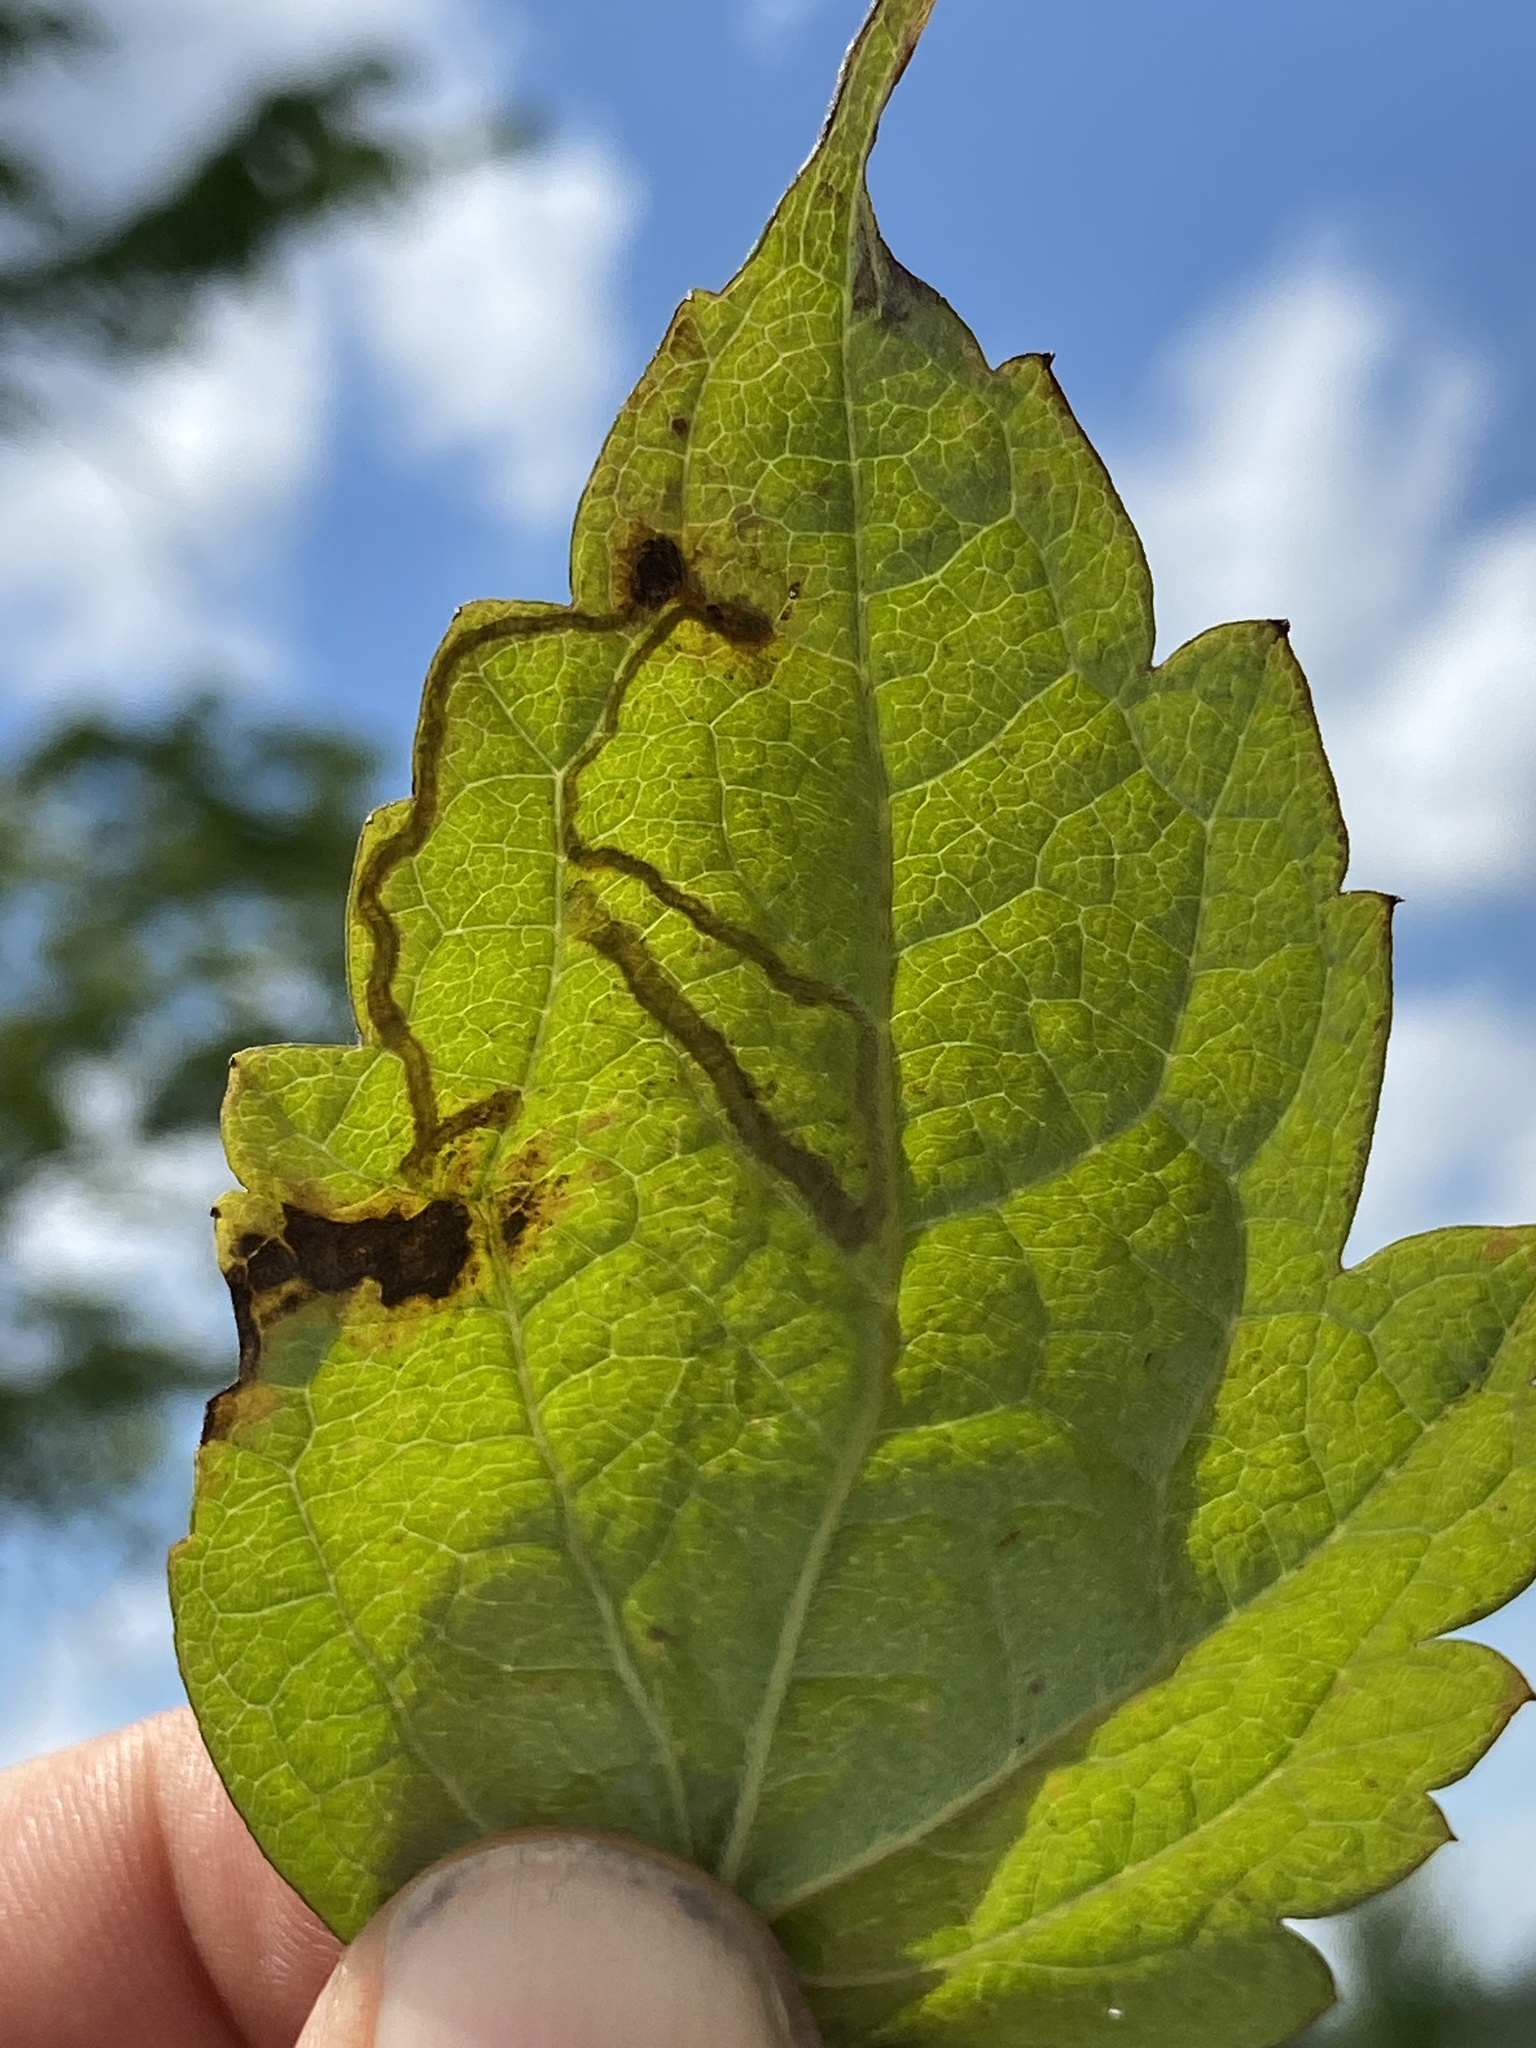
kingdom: Animalia
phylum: Arthropoda
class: Insecta
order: Diptera
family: Agromyzidae
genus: Phytomyza
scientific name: Phytomyza loewii
